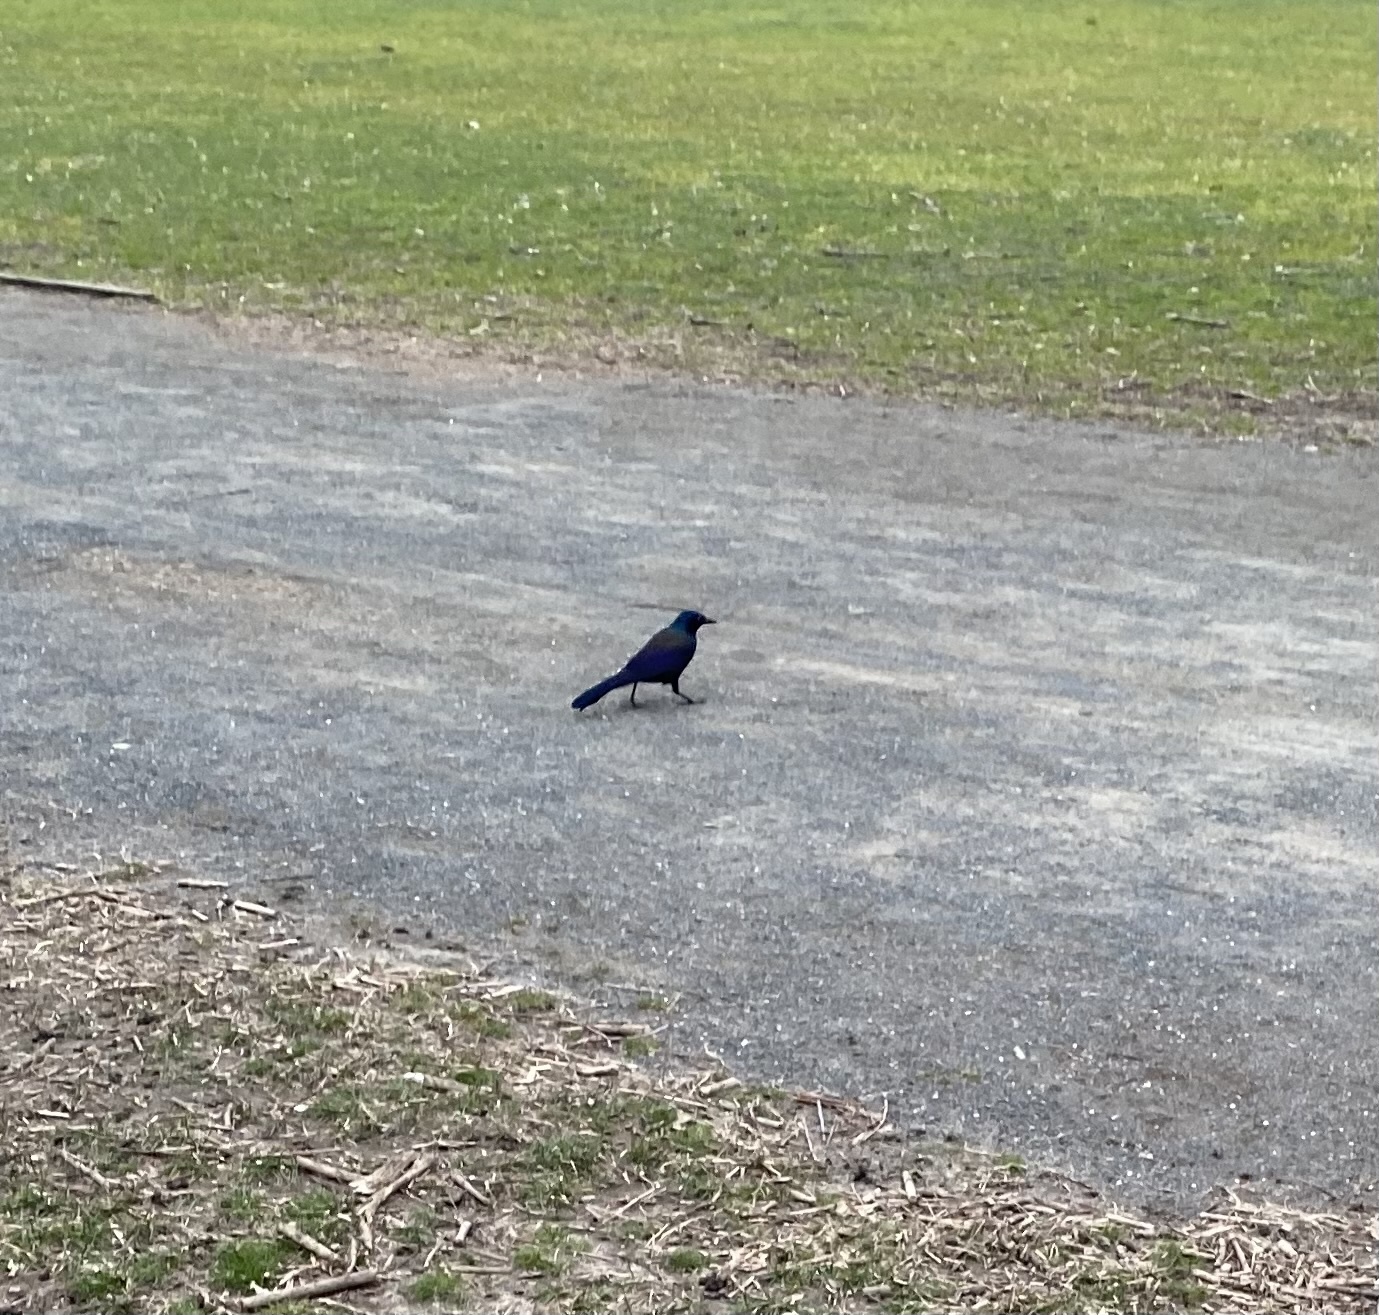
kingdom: Animalia
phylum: Chordata
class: Aves
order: Passeriformes
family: Icteridae
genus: Quiscalus
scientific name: Quiscalus quiscula
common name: Common grackle
